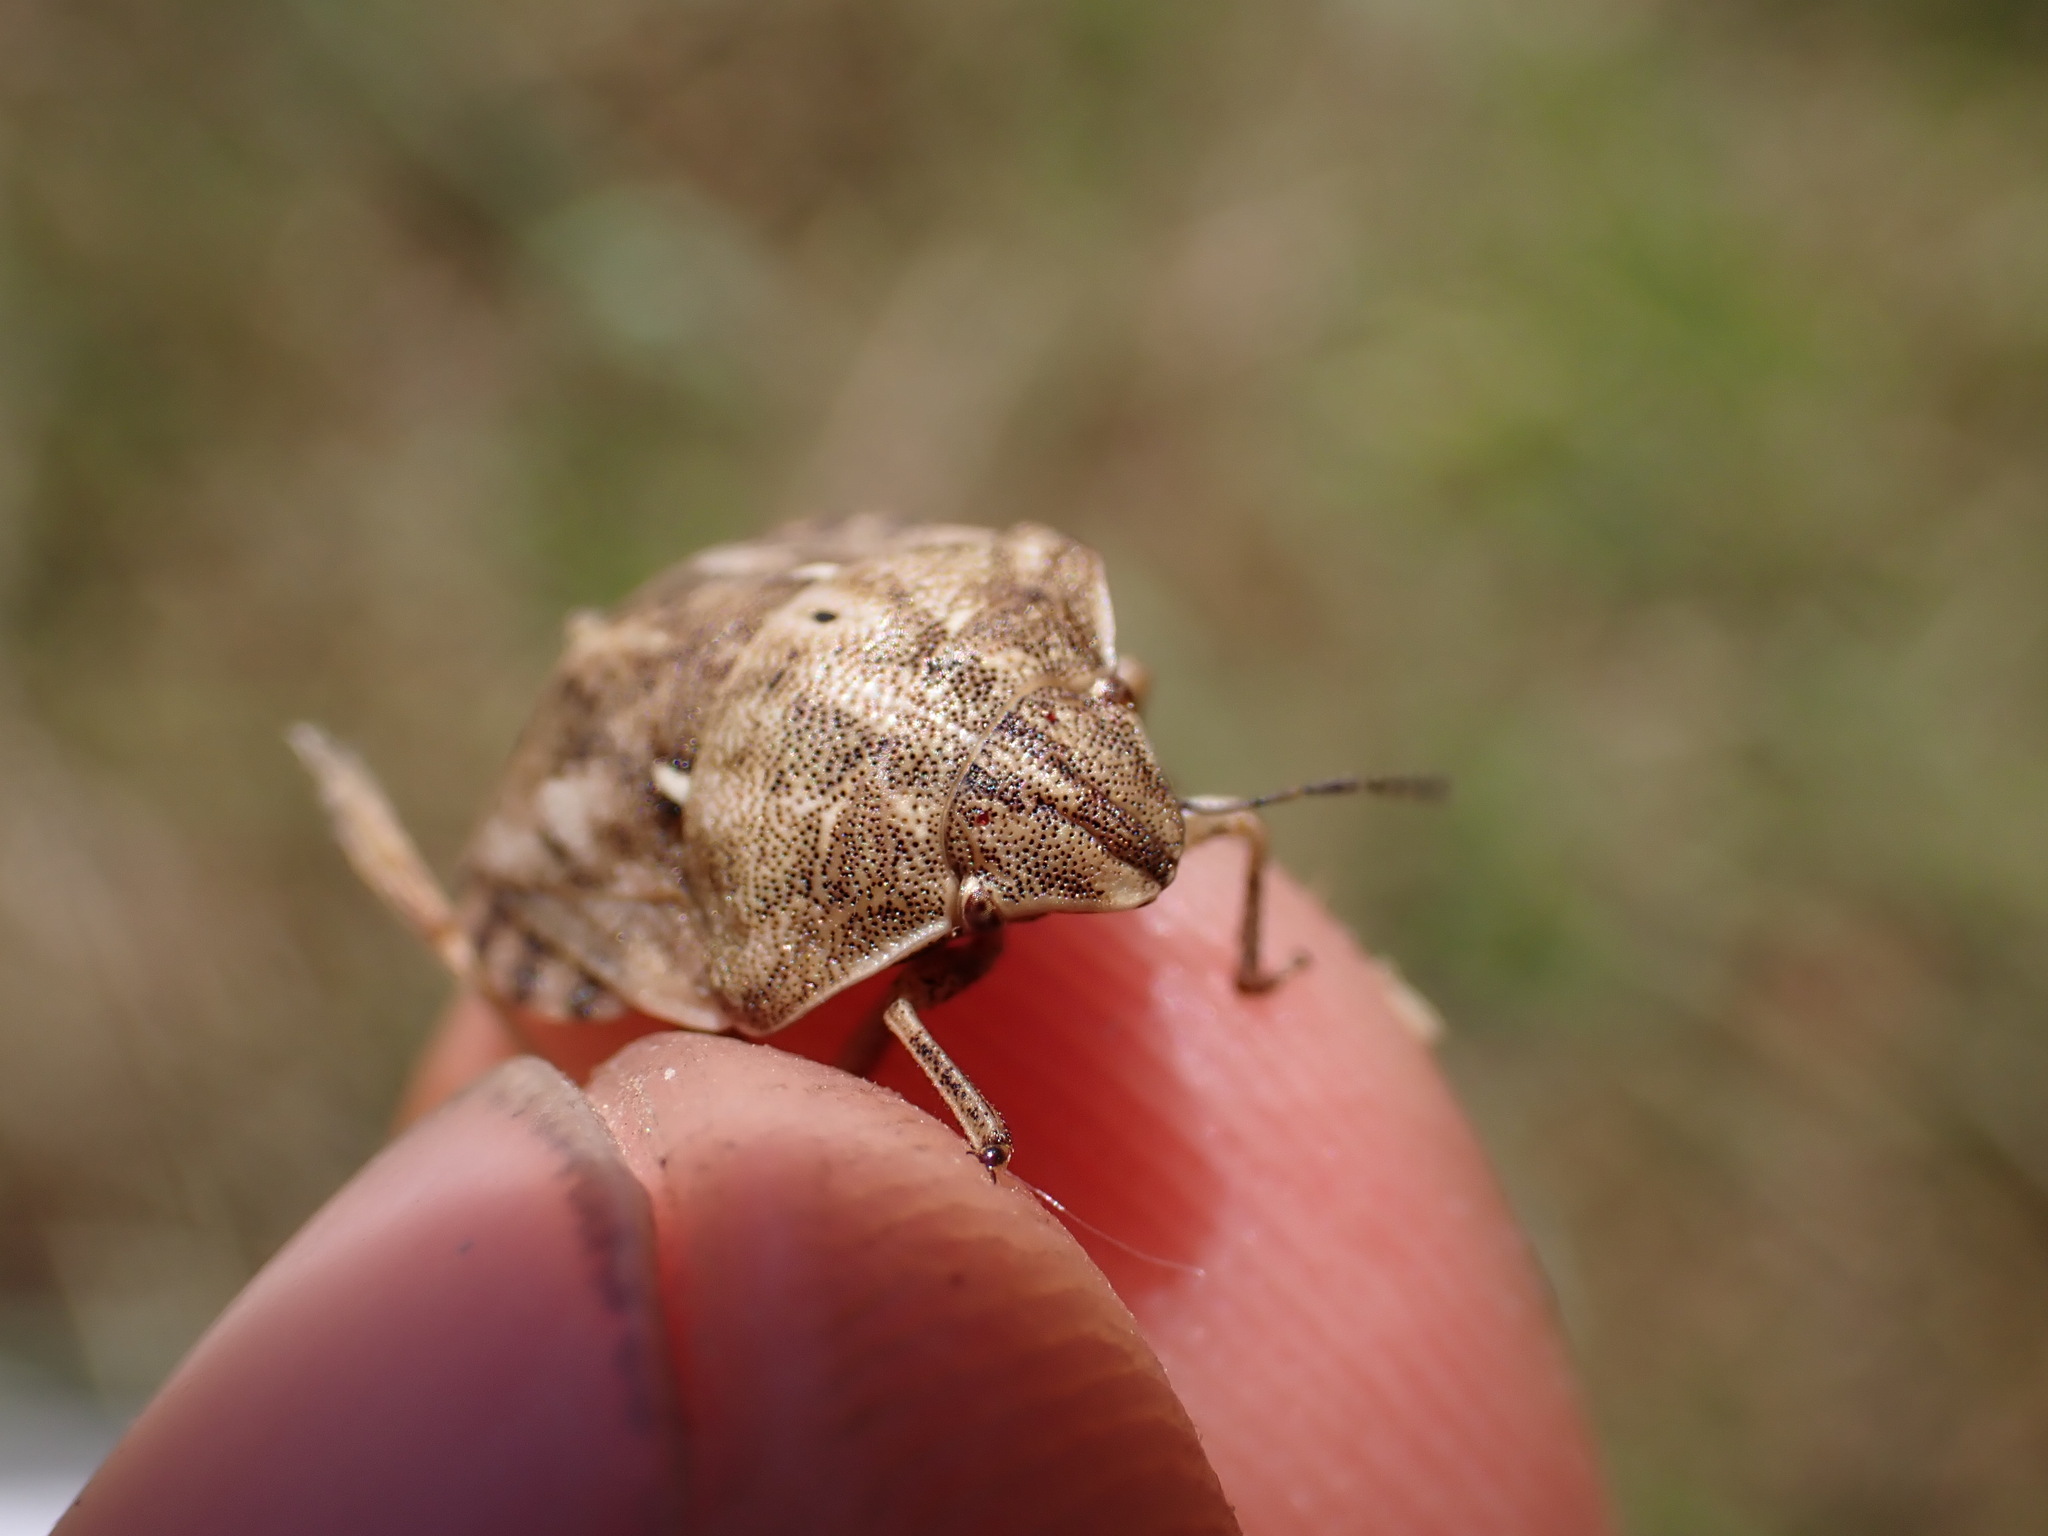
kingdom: Animalia
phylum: Arthropoda
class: Insecta
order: Hemiptera
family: Scutelleridae
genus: Eurygaster
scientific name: Eurygaster maura
